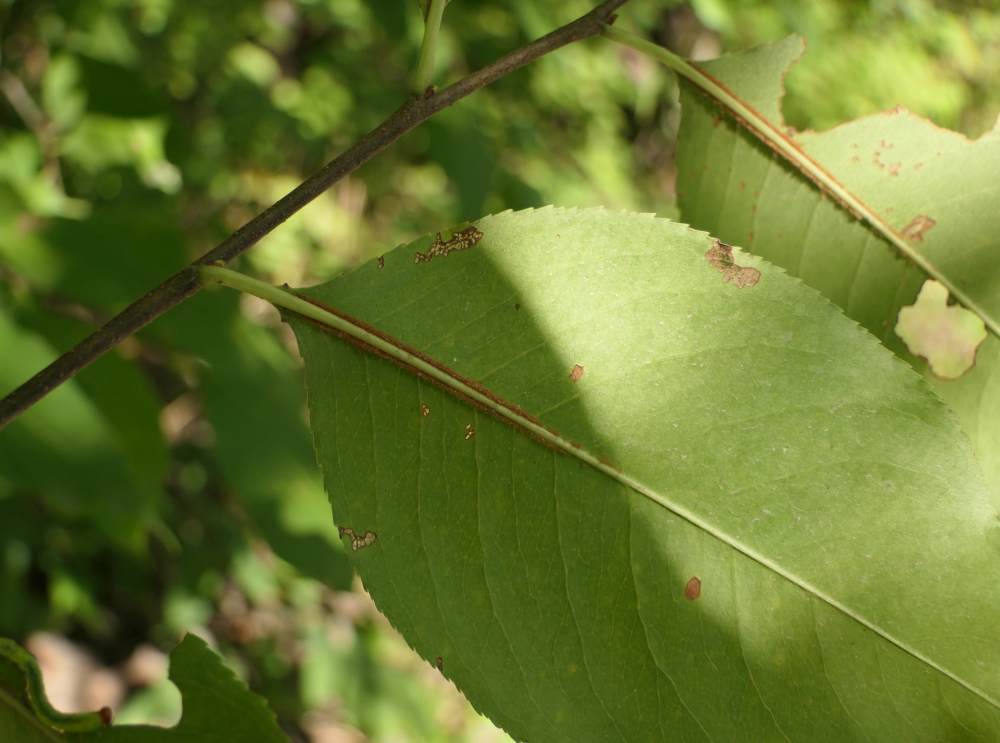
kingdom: Plantae
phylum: Tracheophyta
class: Magnoliopsida
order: Rosales
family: Rosaceae
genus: Prunus
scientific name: Prunus serotina
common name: Black cherry
